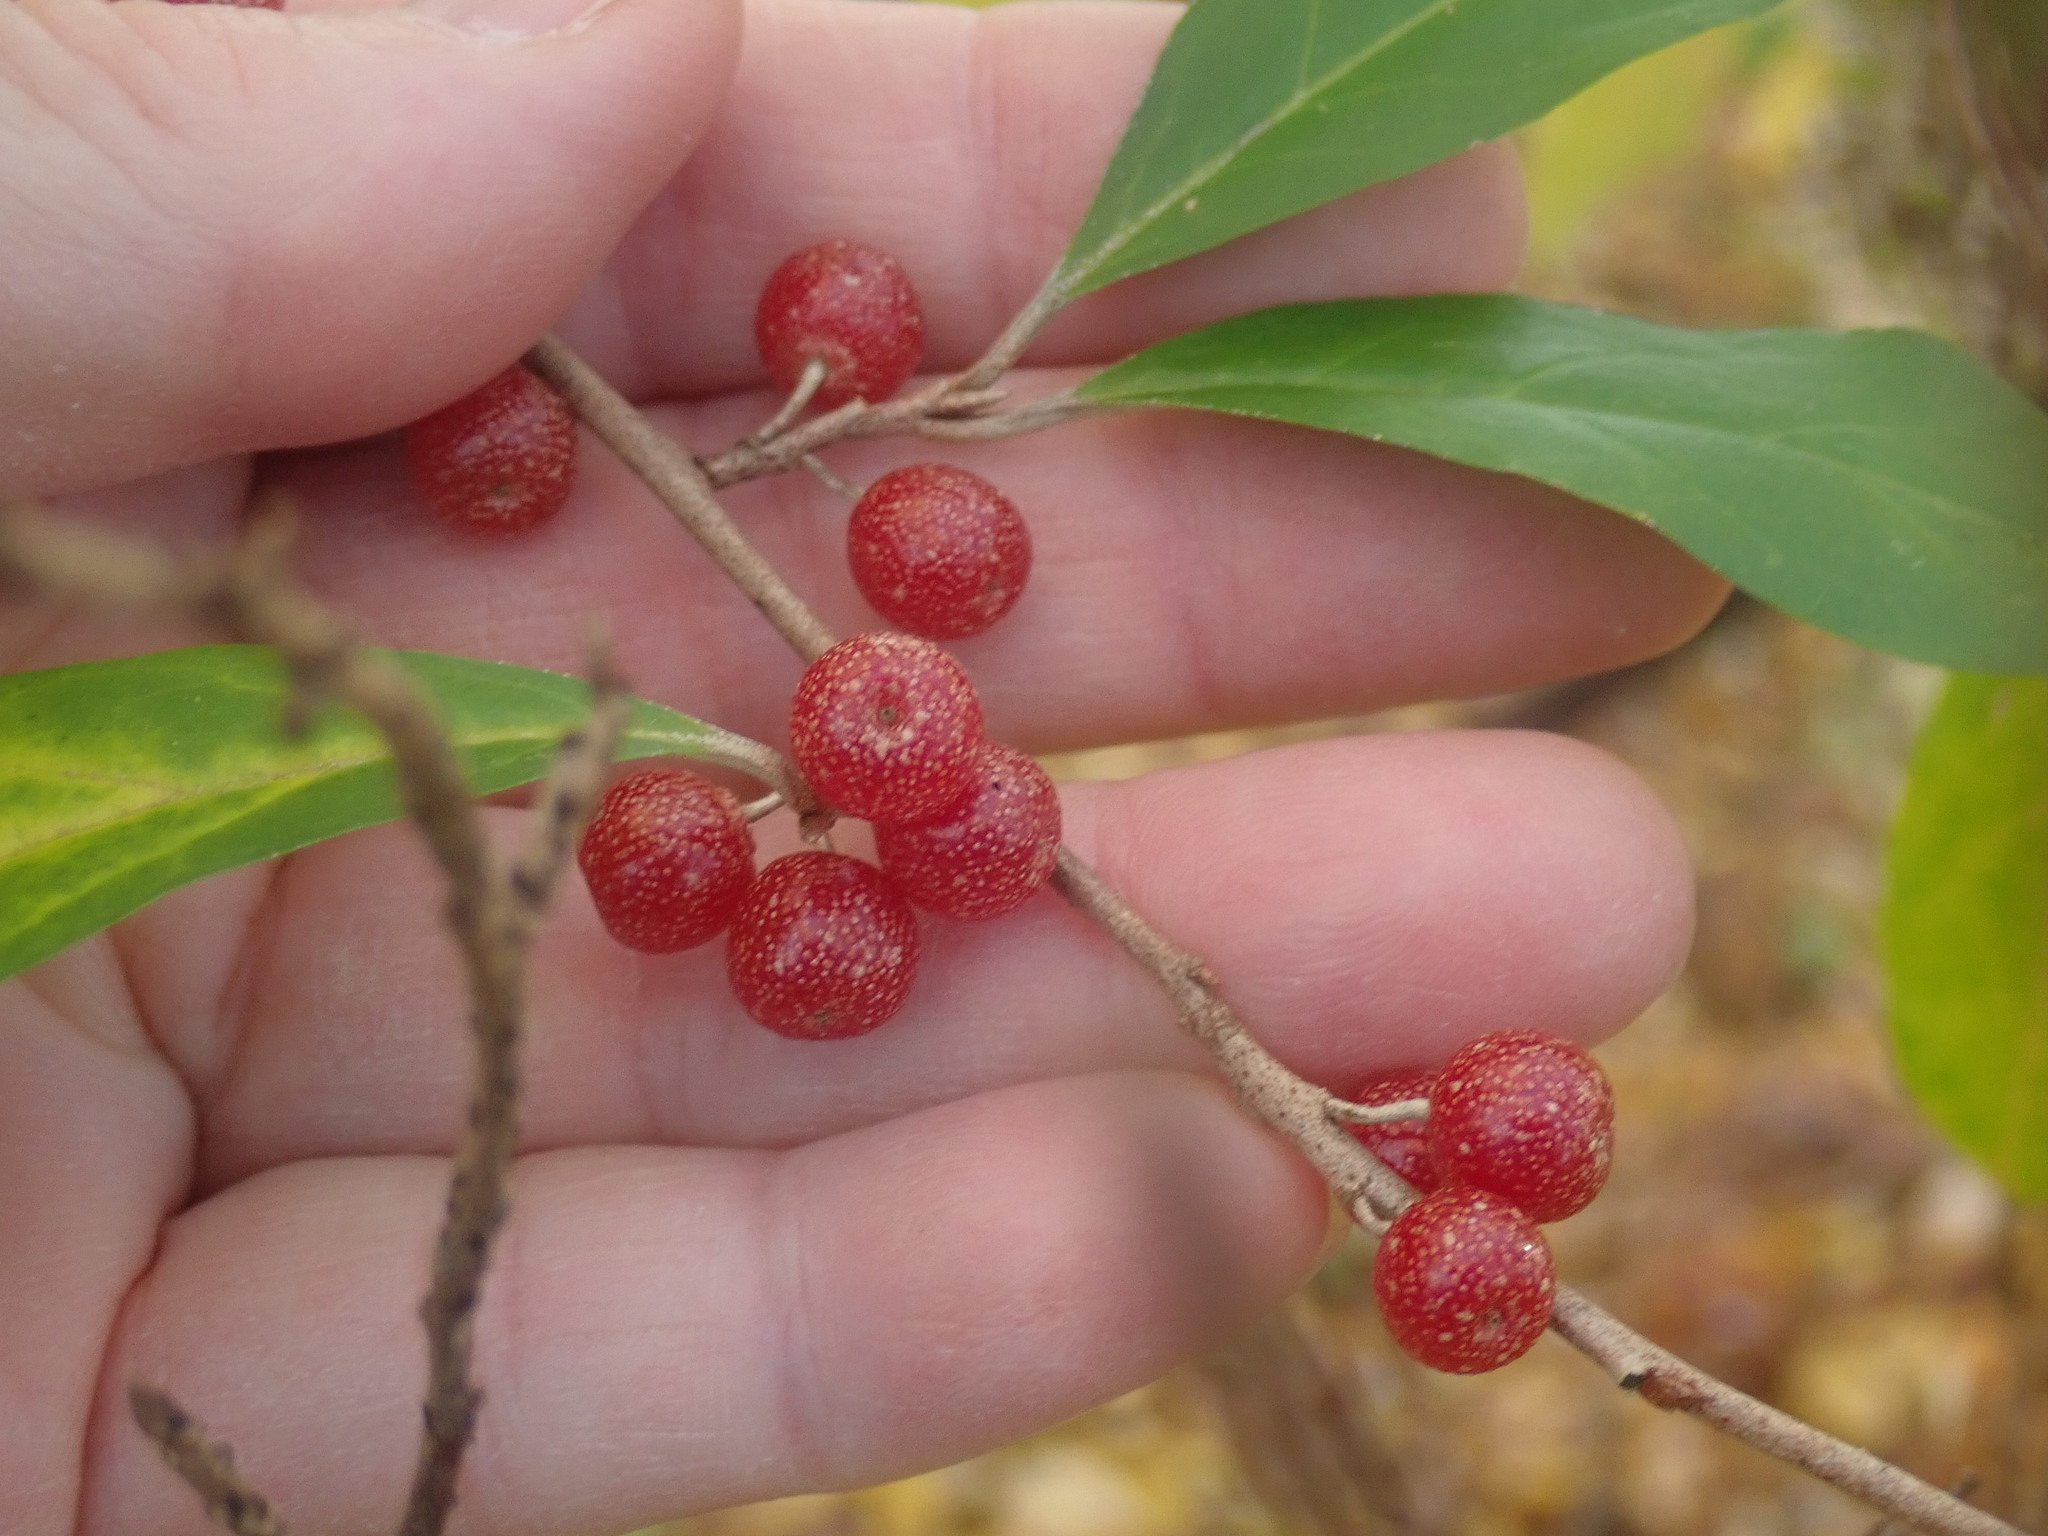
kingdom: Plantae
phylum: Tracheophyta
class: Magnoliopsida
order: Rosales
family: Elaeagnaceae
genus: Elaeagnus
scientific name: Elaeagnus umbellata
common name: Autumn olive
